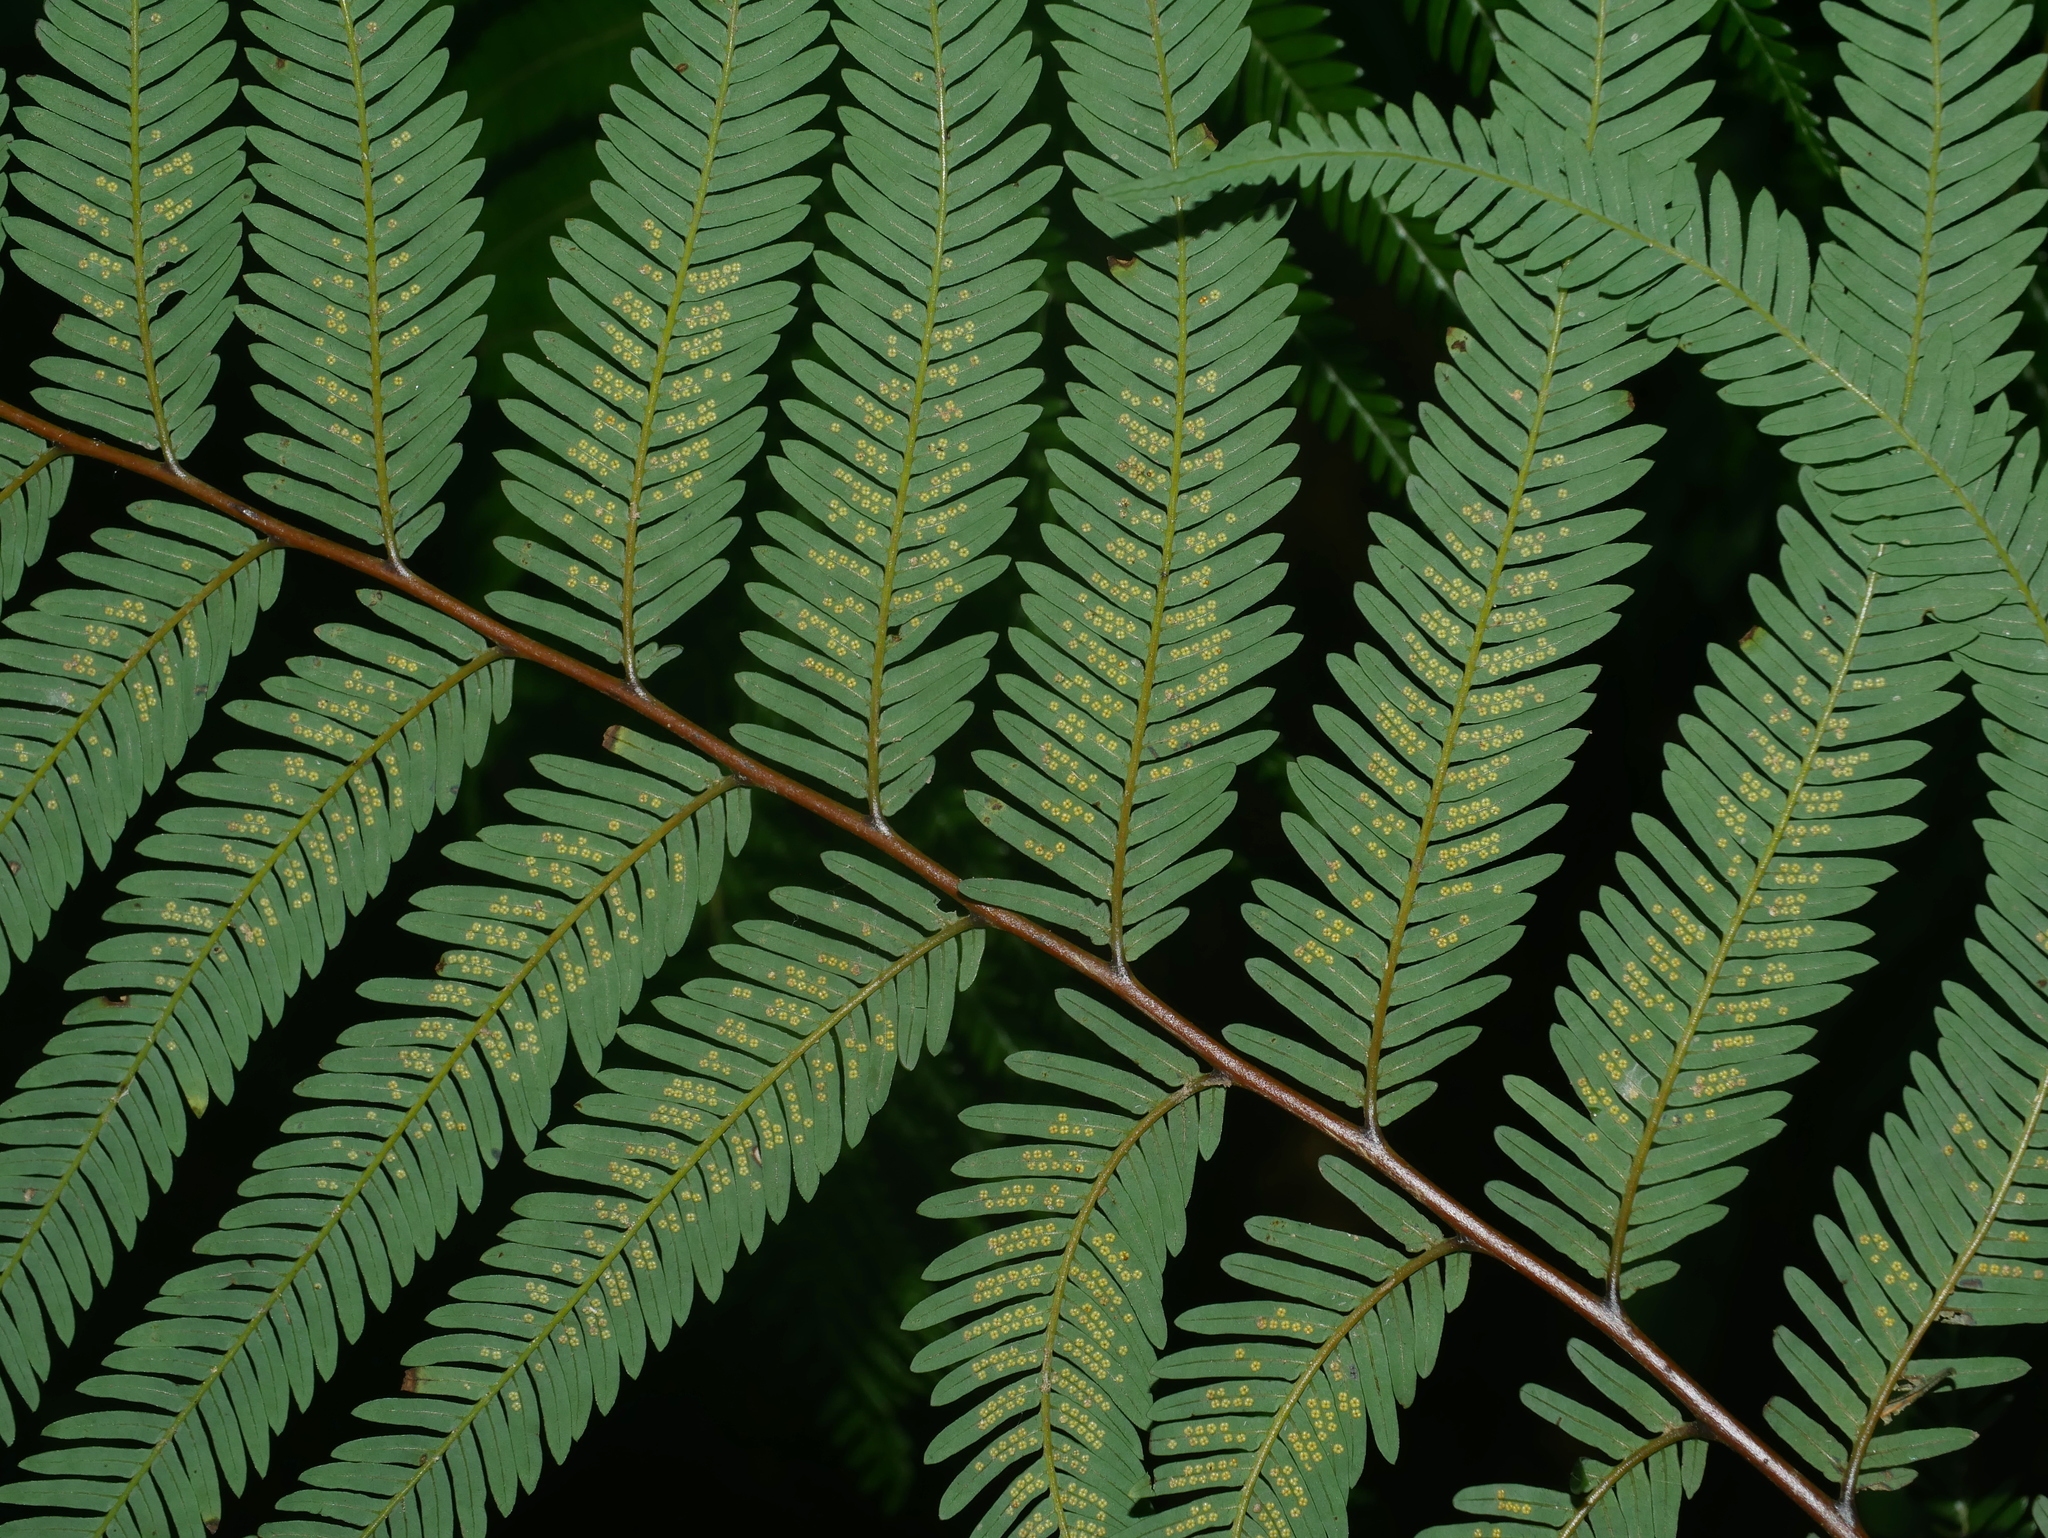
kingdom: Plantae
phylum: Tracheophyta
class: Polypodiopsida
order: Gleicheniales
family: Gleicheniaceae
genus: Diplopterygium
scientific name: Diplopterygium laevissimum
